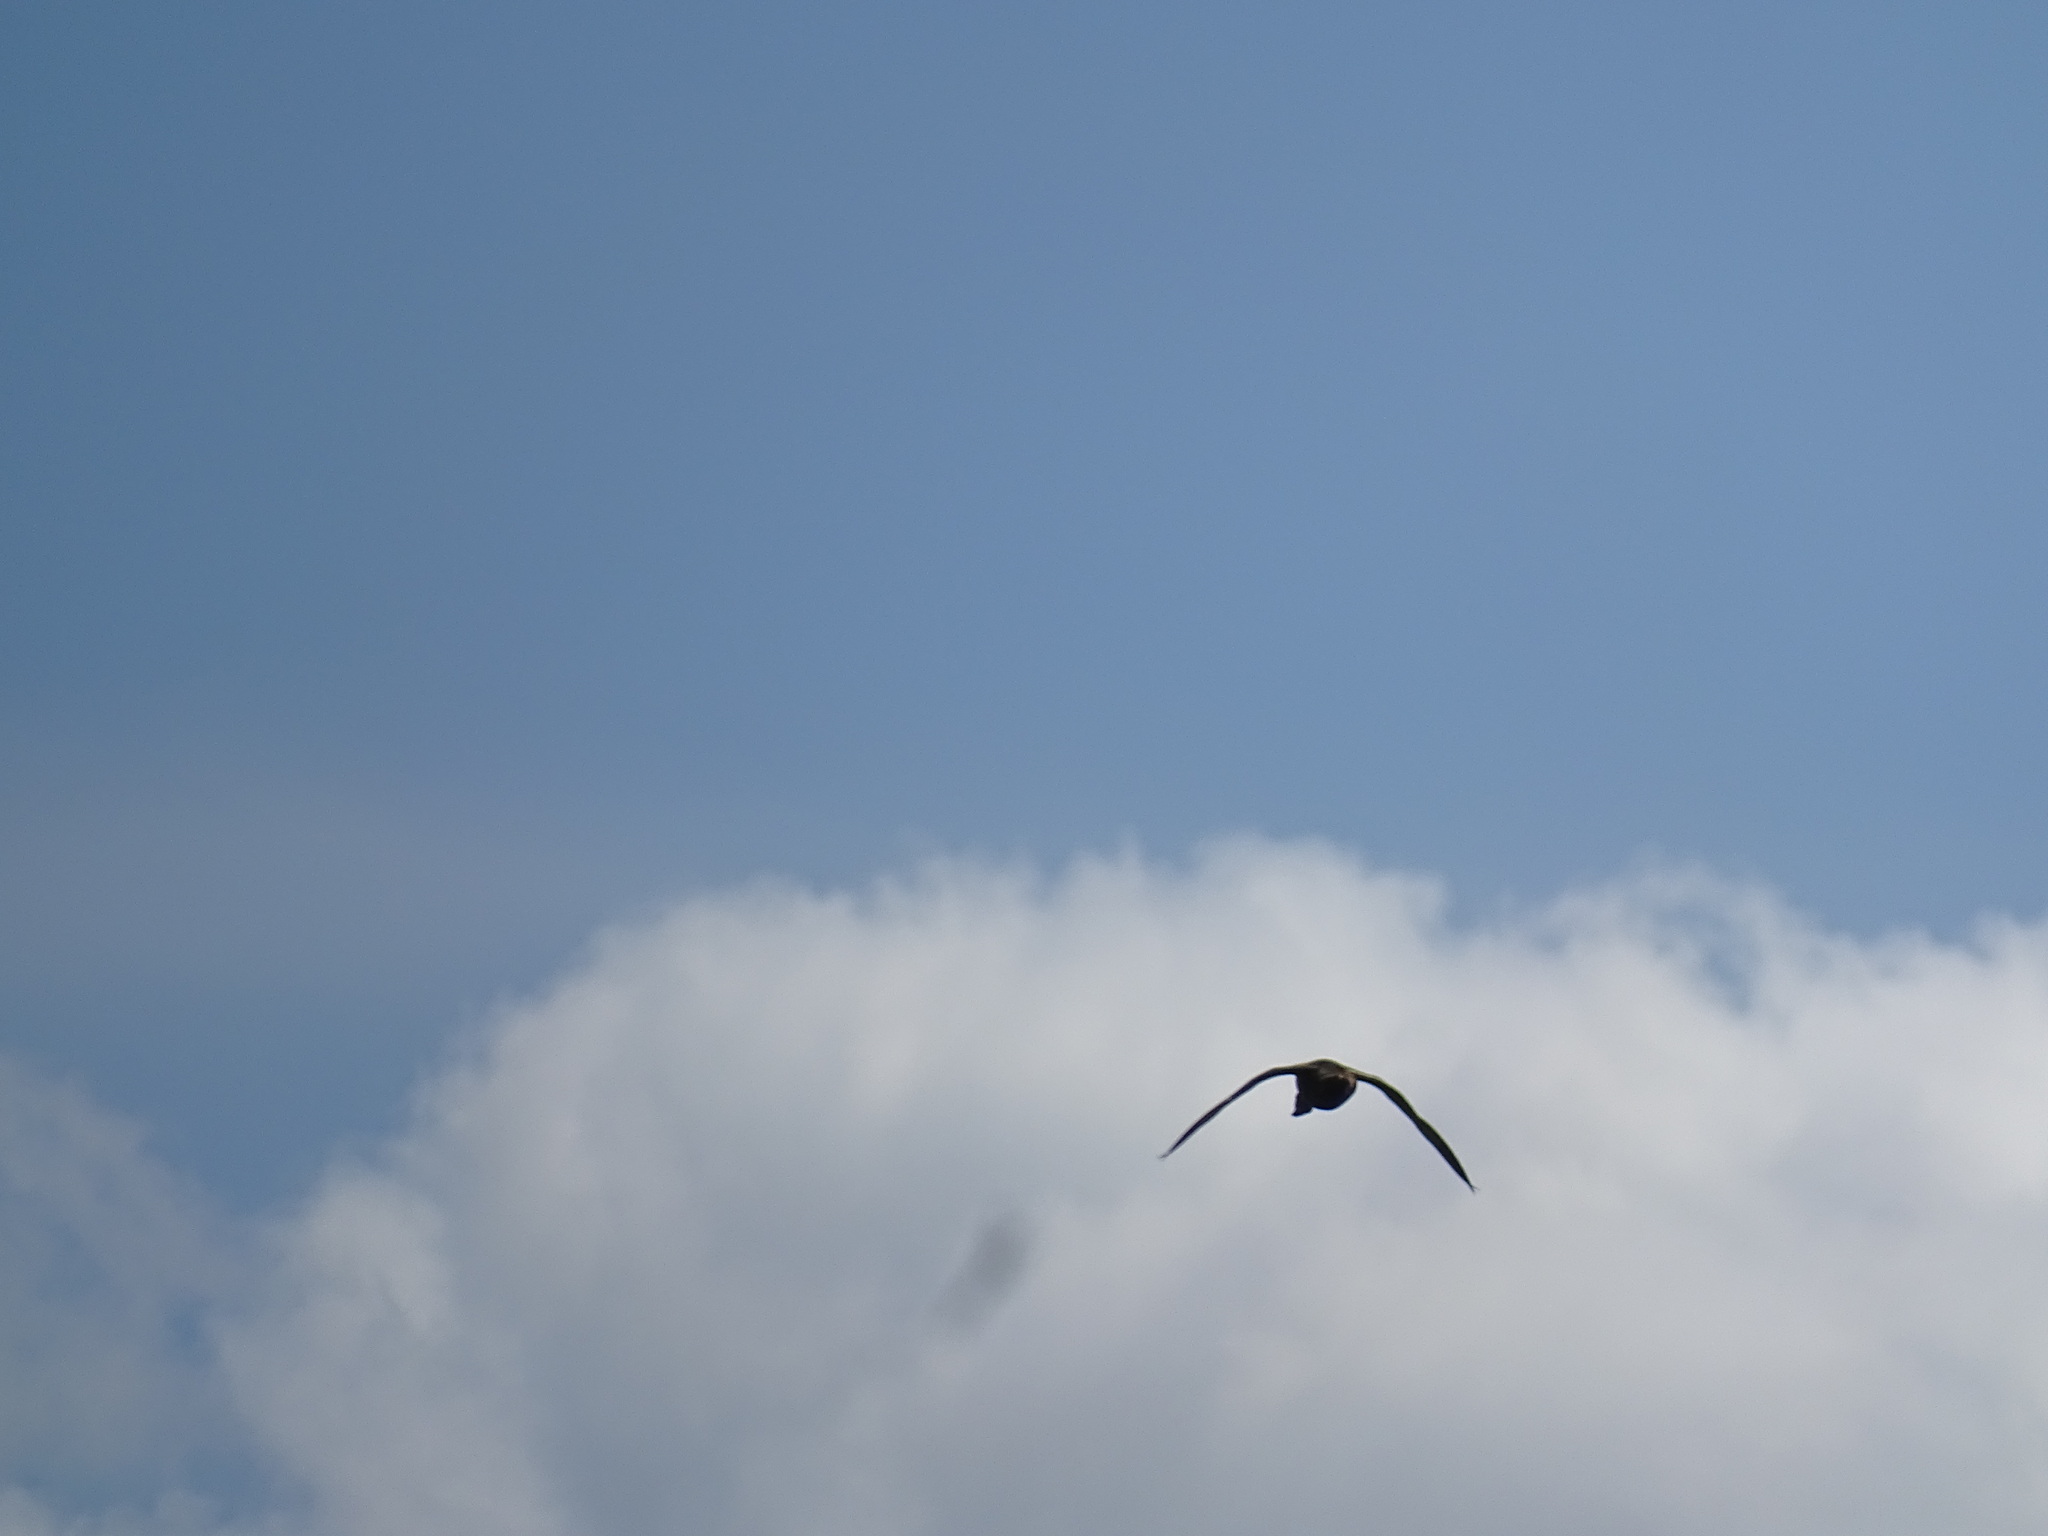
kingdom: Animalia
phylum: Chordata
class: Aves
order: Anseriformes
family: Anatidae
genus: Anas
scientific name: Anas platyrhynchos
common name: Mallard
